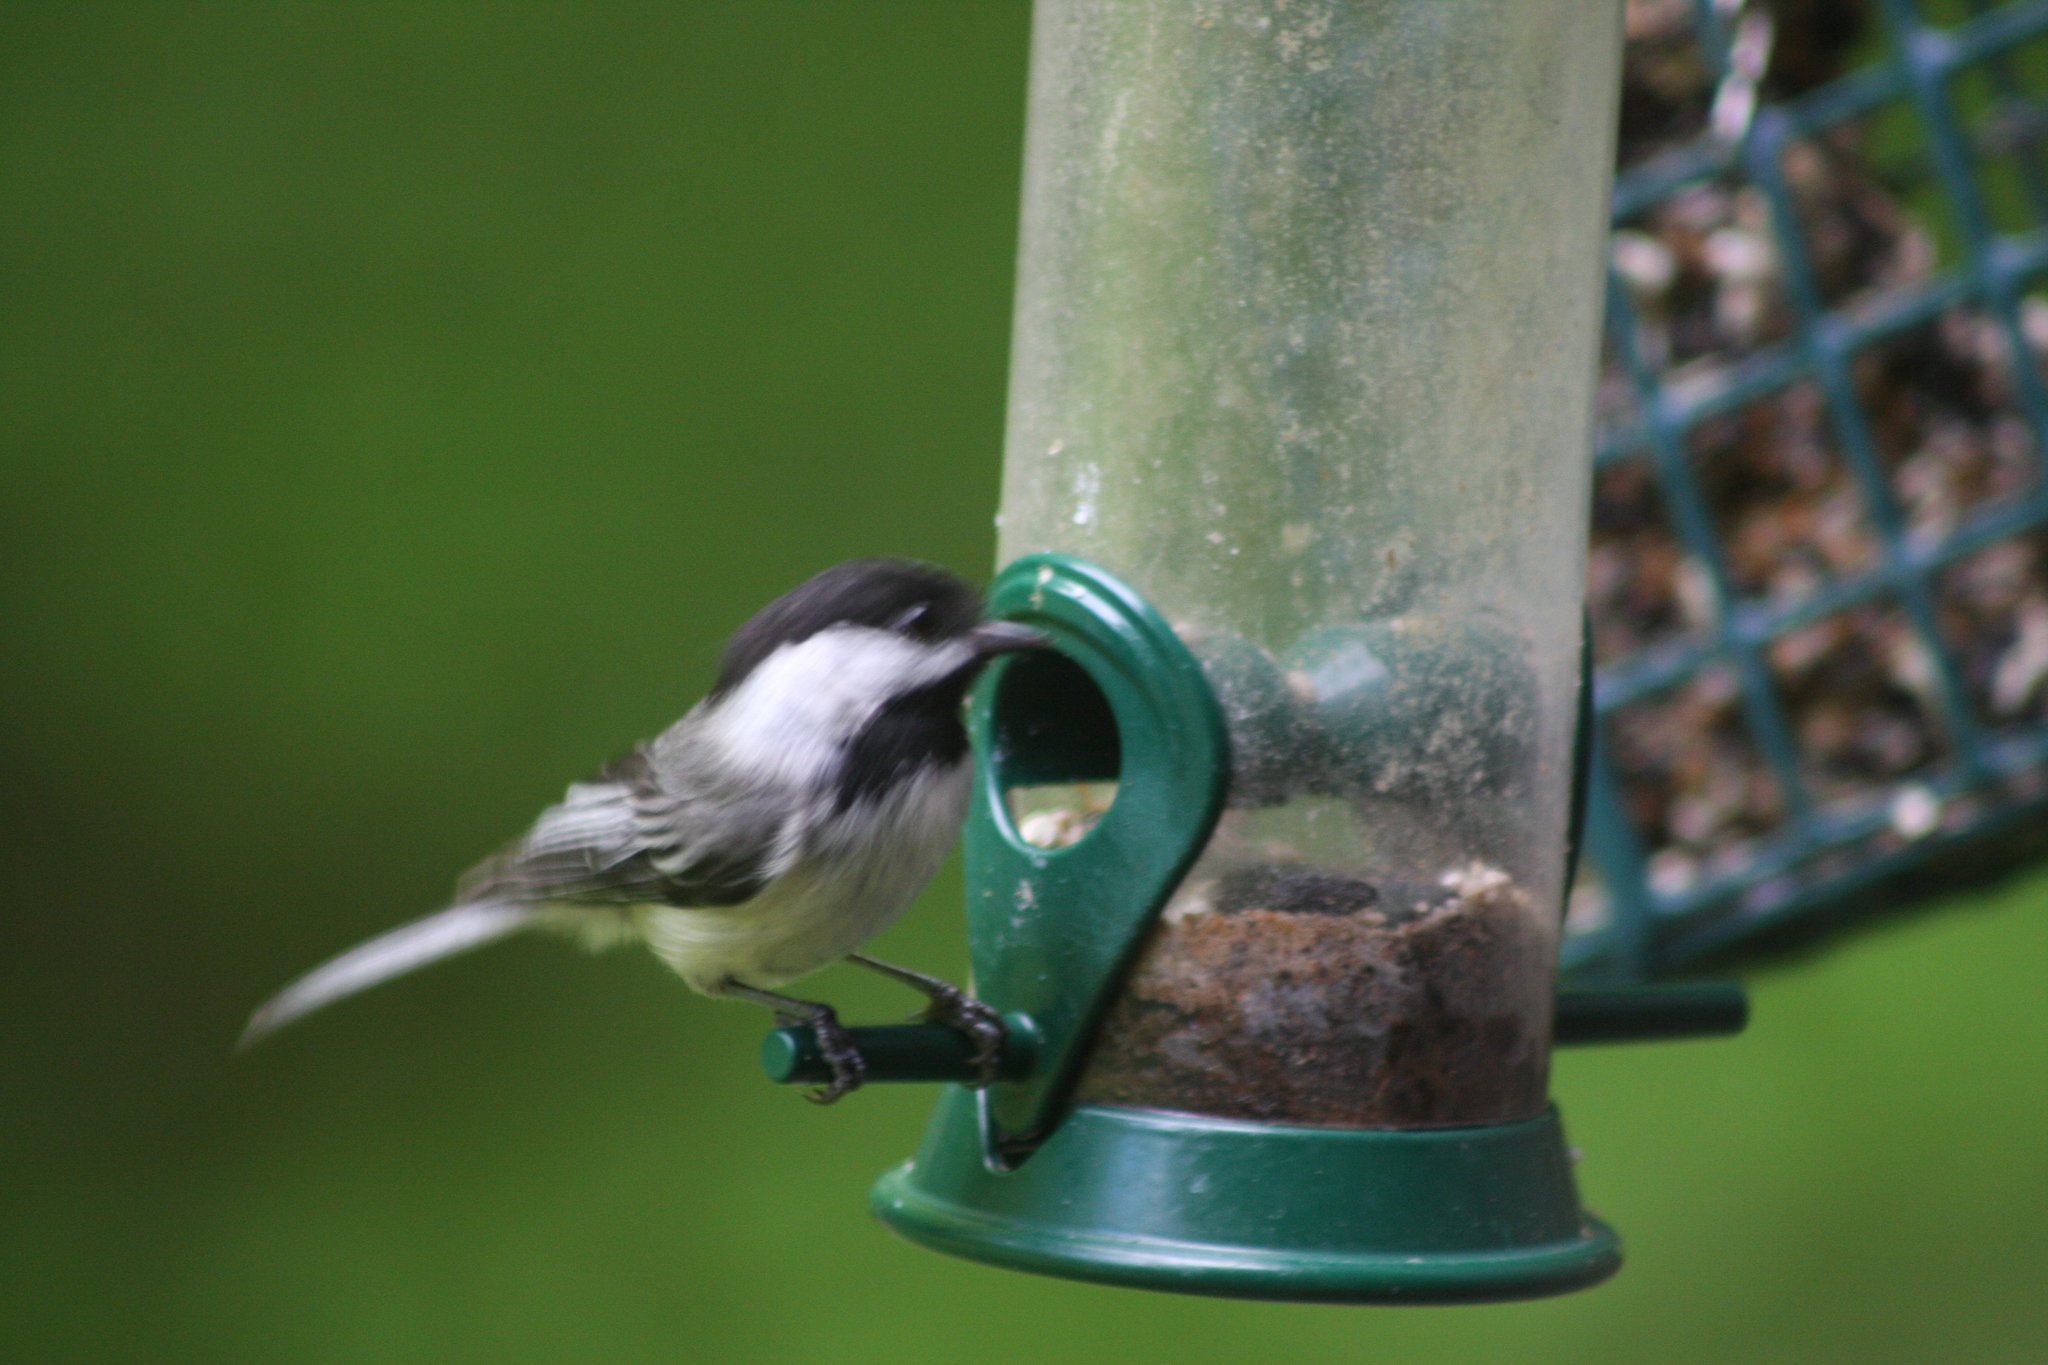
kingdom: Animalia
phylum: Chordata
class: Aves
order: Passeriformes
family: Paridae
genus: Poecile
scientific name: Poecile atricapillus
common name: Black-capped chickadee
